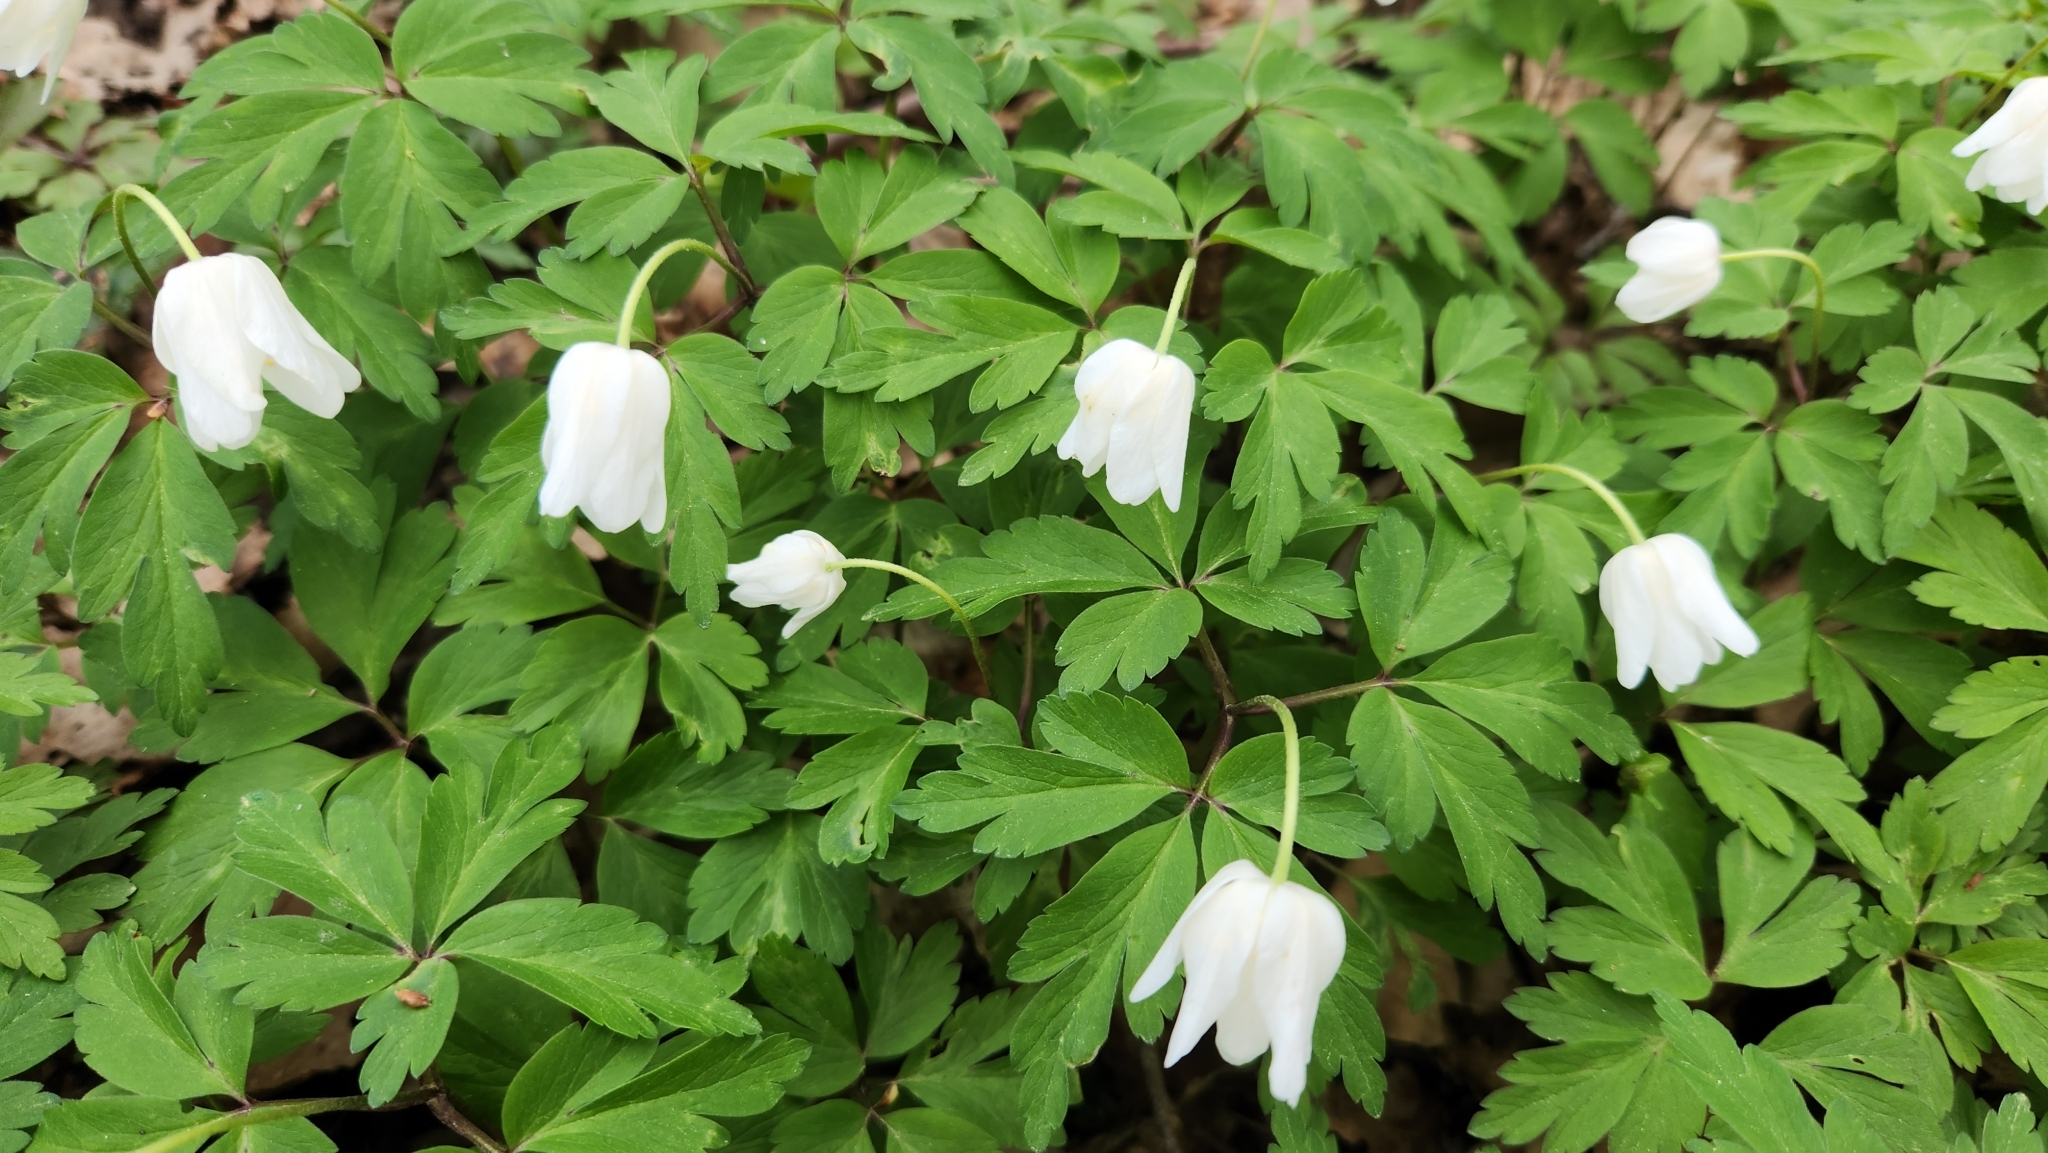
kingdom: Plantae
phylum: Tracheophyta
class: Magnoliopsida
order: Ranunculales
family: Ranunculaceae
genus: Anemone
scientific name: Anemone nemorosa
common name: Wood anemone
